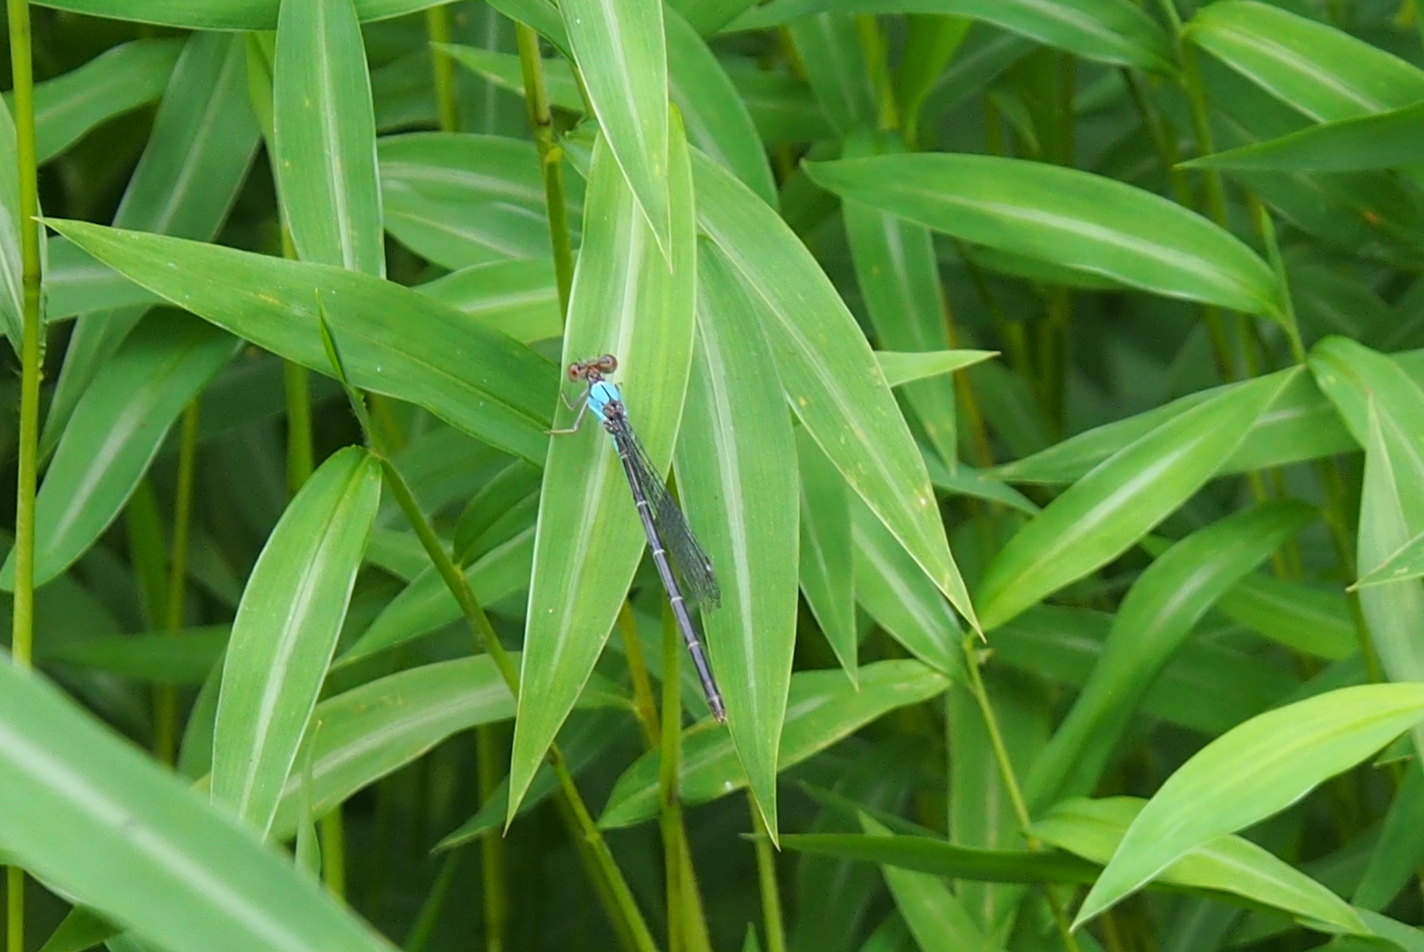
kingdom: Animalia
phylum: Arthropoda
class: Insecta
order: Odonata
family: Coenagrionidae
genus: Argia
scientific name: Argia apicalis
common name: Blue-fronted dancer
